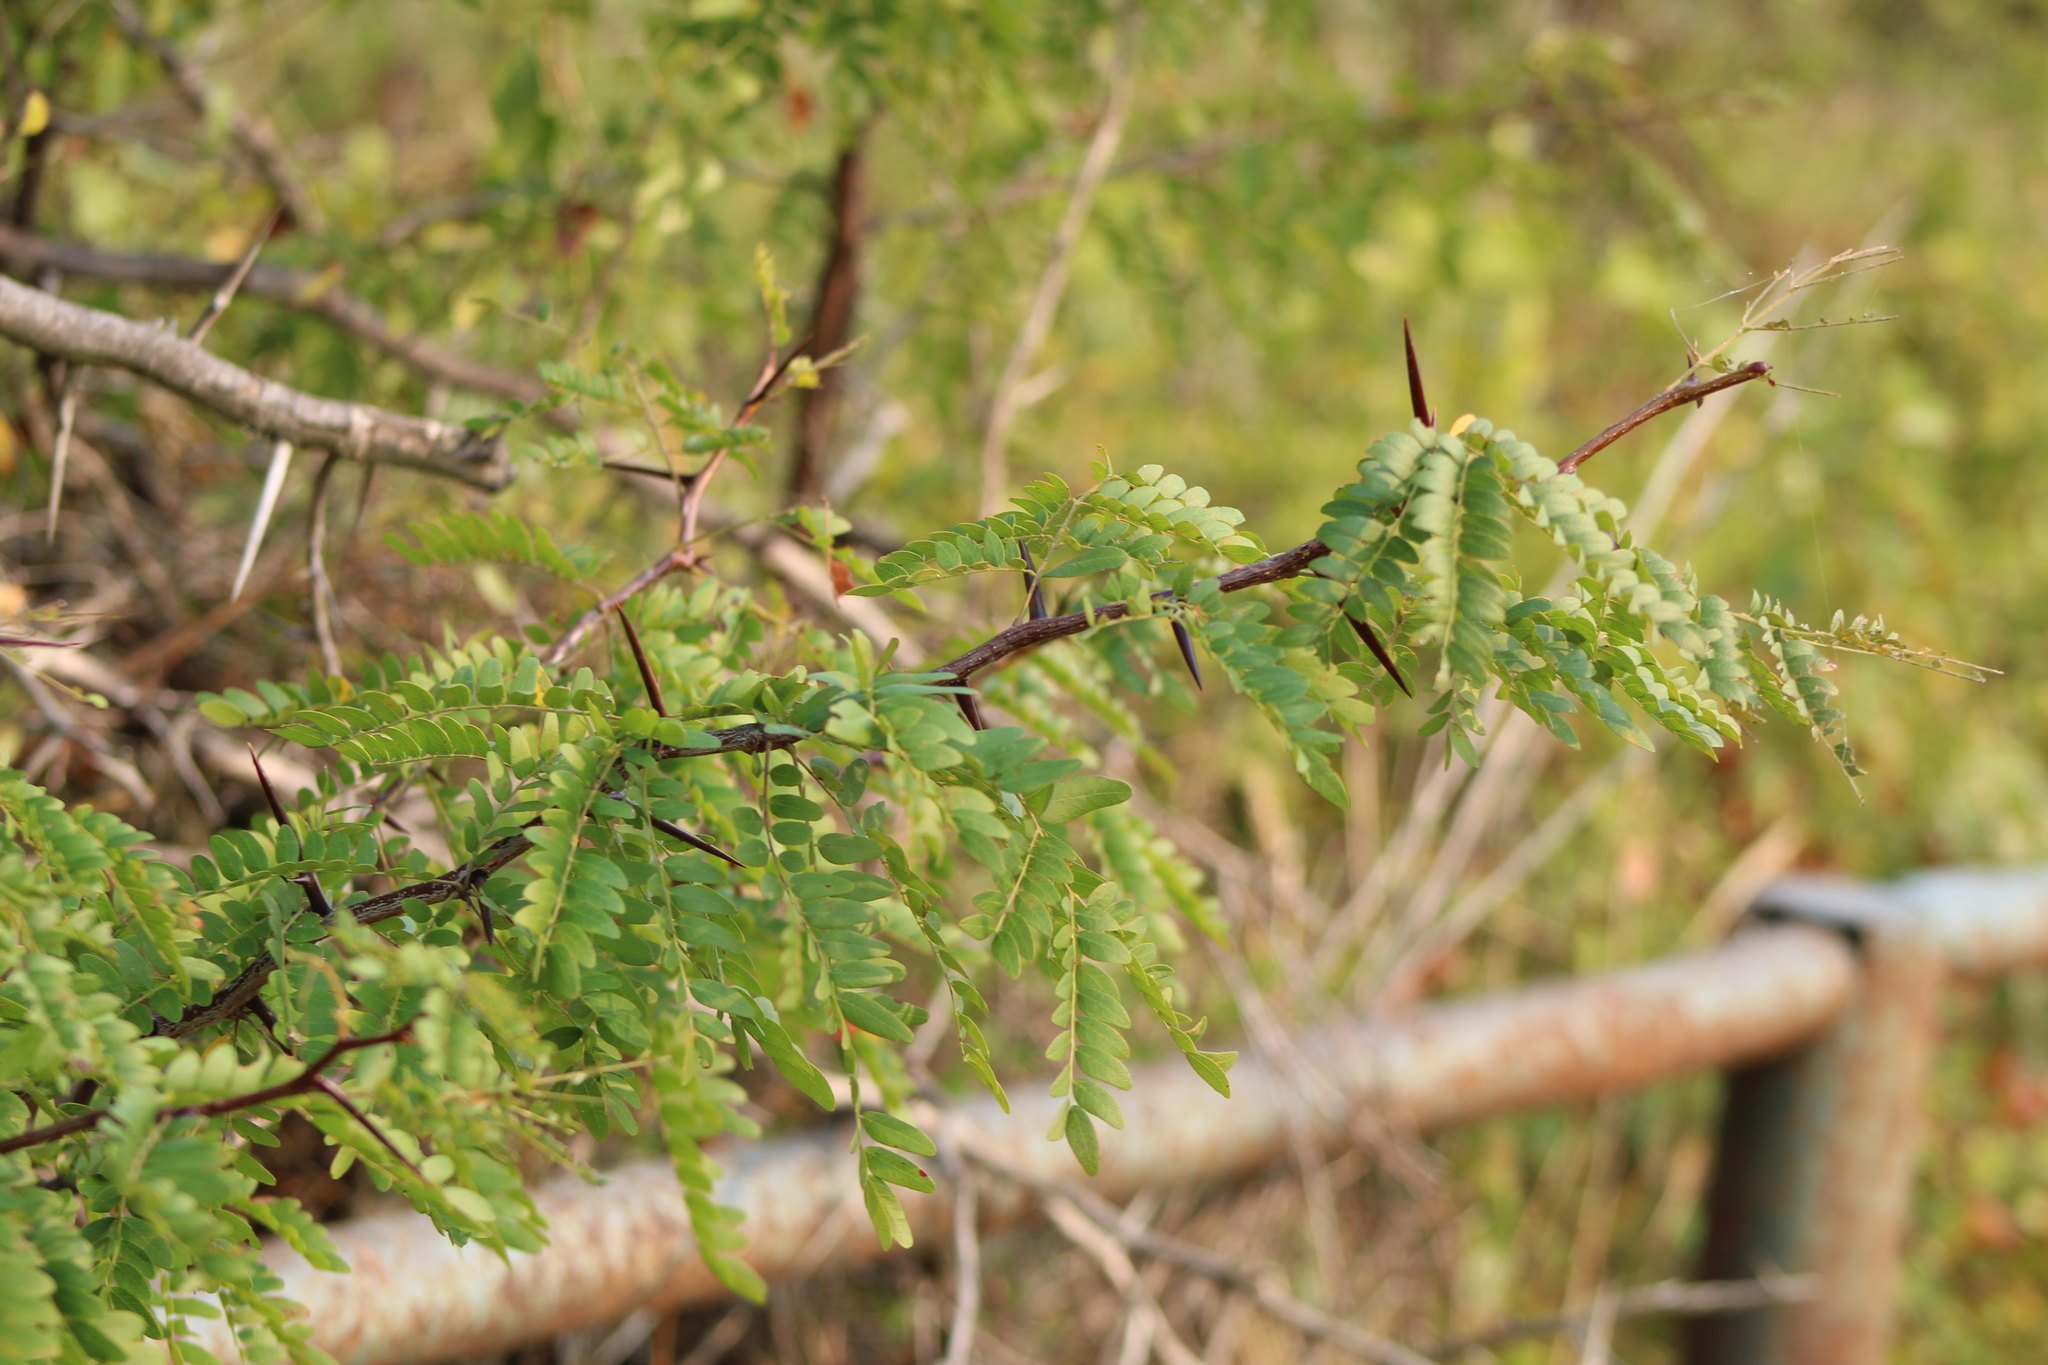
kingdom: Plantae
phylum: Tracheophyta
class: Magnoliopsida
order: Fabales
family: Fabaceae
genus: Gleditsia
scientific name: Gleditsia triacanthos
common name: Common honeylocust
